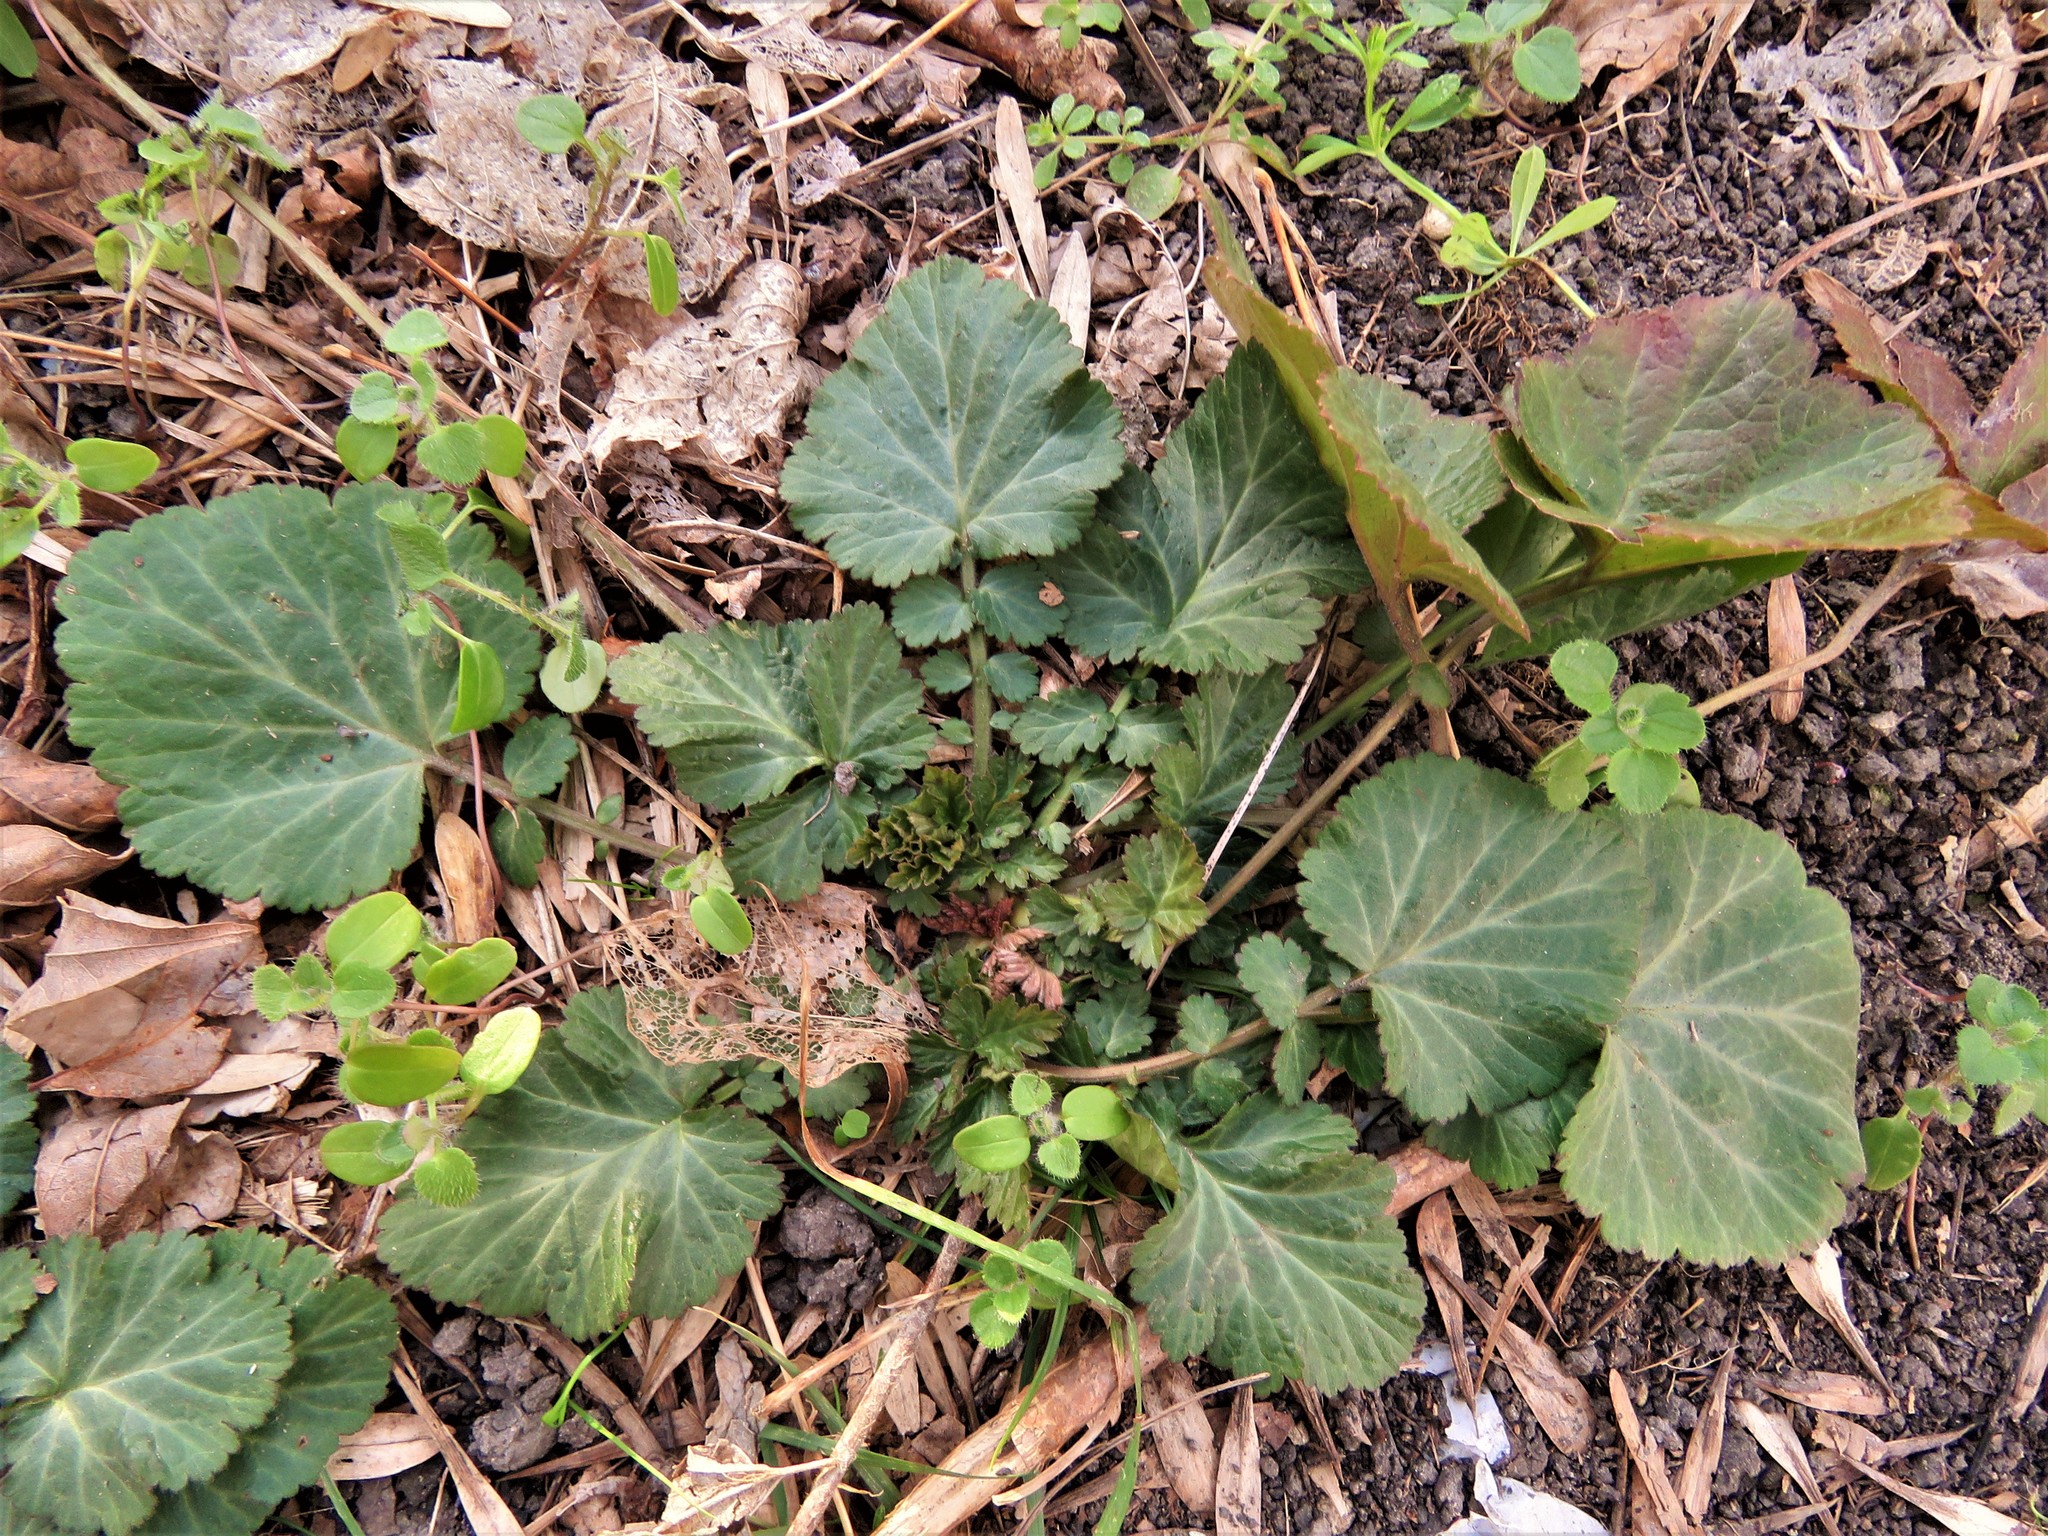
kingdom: Plantae
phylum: Tracheophyta
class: Magnoliopsida
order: Rosales
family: Rosaceae
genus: Geum
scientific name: Geum canadense
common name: White avens
